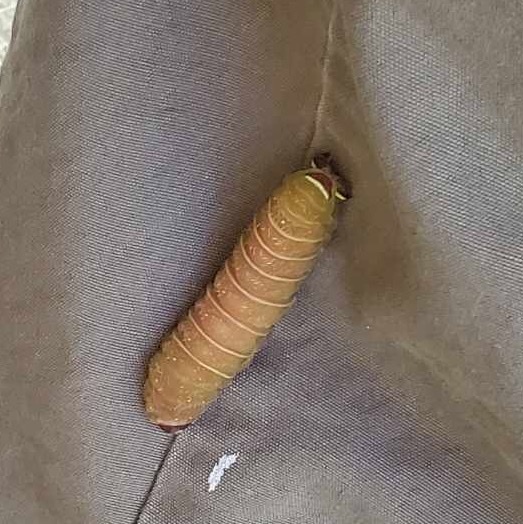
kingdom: Animalia
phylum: Arthropoda
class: Insecta
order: Lepidoptera
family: Saturniidae
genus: Actias
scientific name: Actias luna
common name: Luna moth
